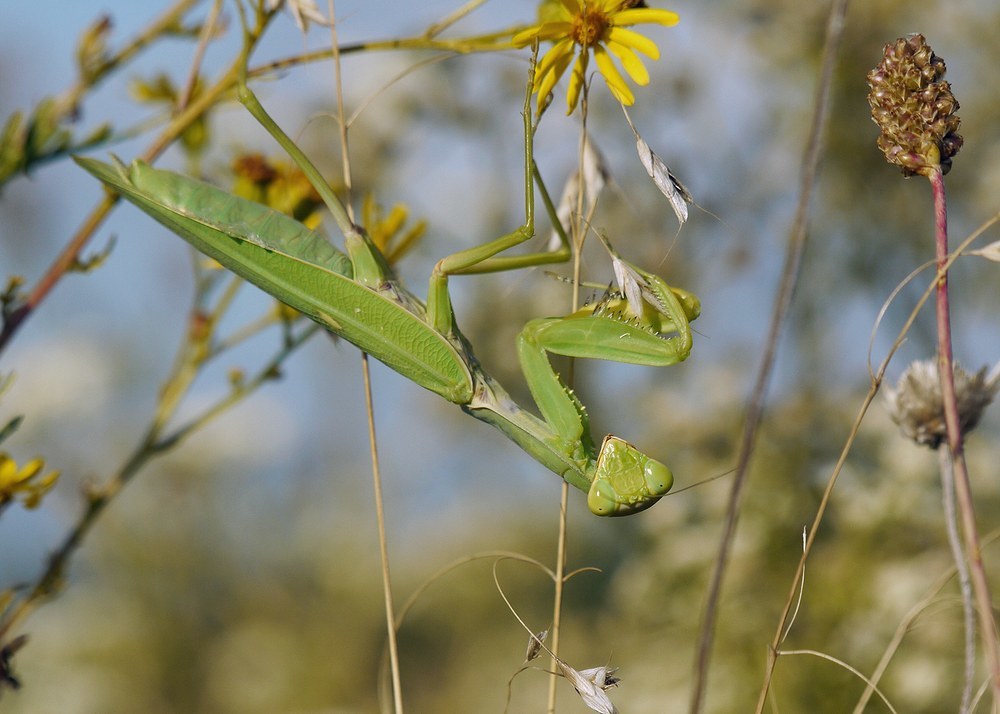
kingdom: Animalia
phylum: Arthropoda
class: Insecta
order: Mantodea
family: Mantidae
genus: Hierodula
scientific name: Hierodula transcaucasica
